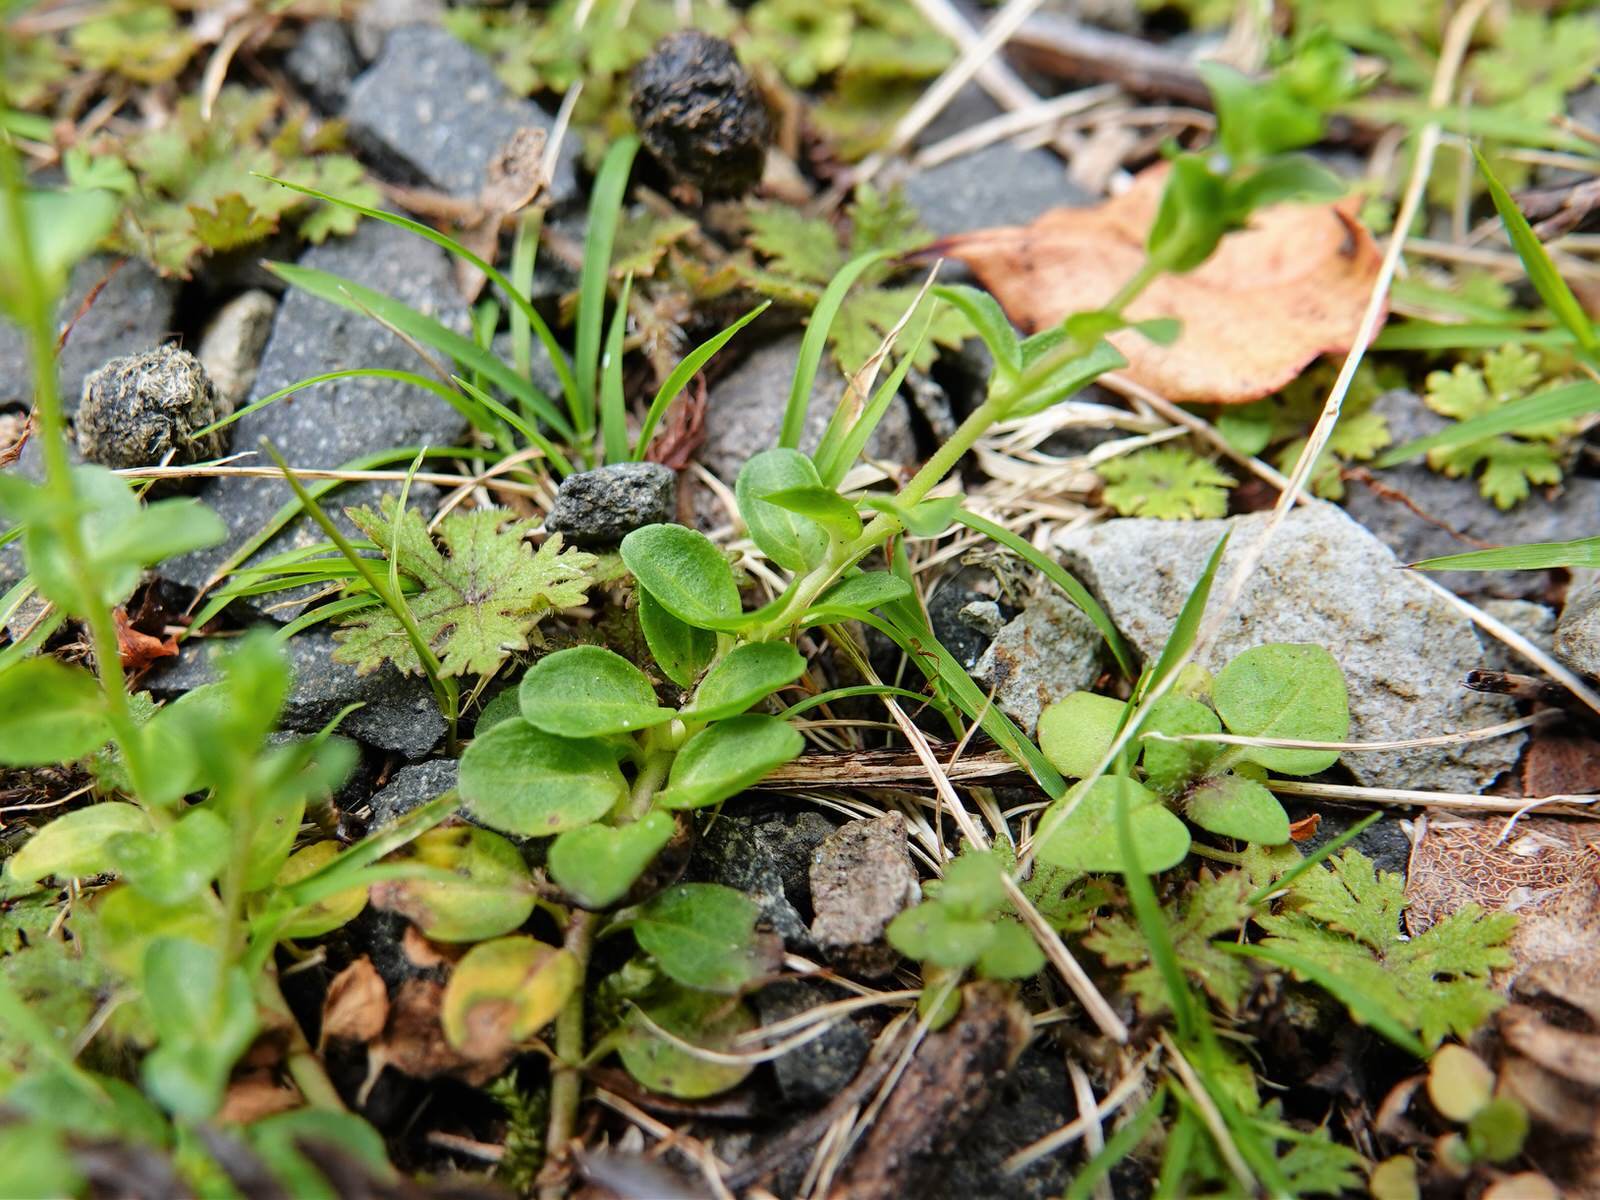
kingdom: Plantae
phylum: Tracheophyta
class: Magnoliopsida
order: Lamiales
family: Plantaginaceae
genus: Veronica
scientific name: Veronica serpyllifolia
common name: Thyme-leaved speedwell
